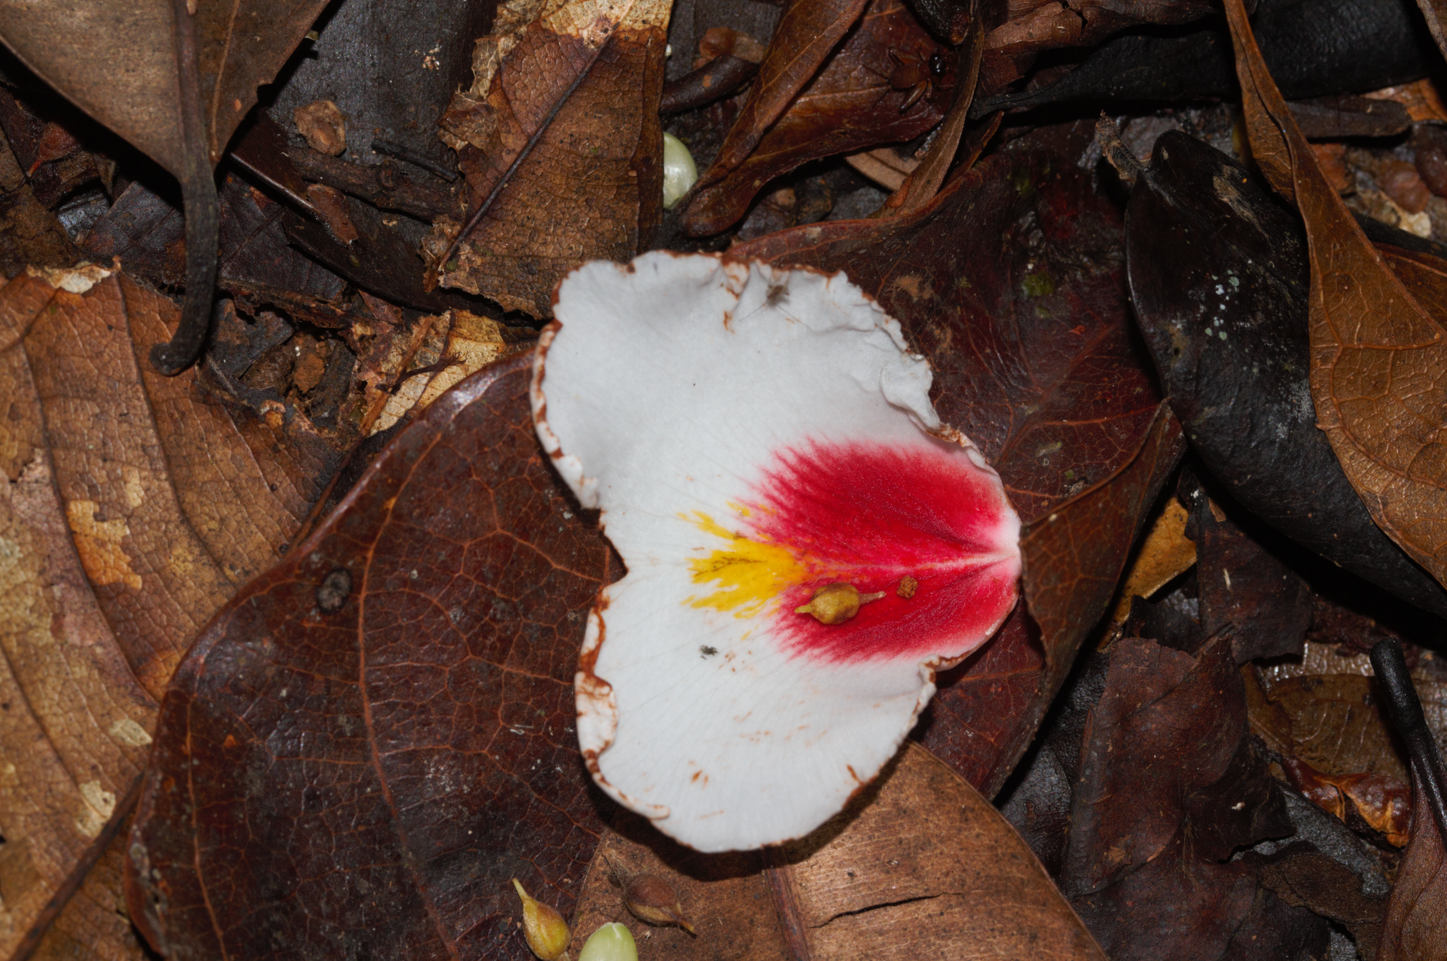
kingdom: Plantae
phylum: Tracheophyta
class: Magnoliopsida
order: Myrtales
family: Vochysiaceae
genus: Qualea
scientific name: Qualea rosea
